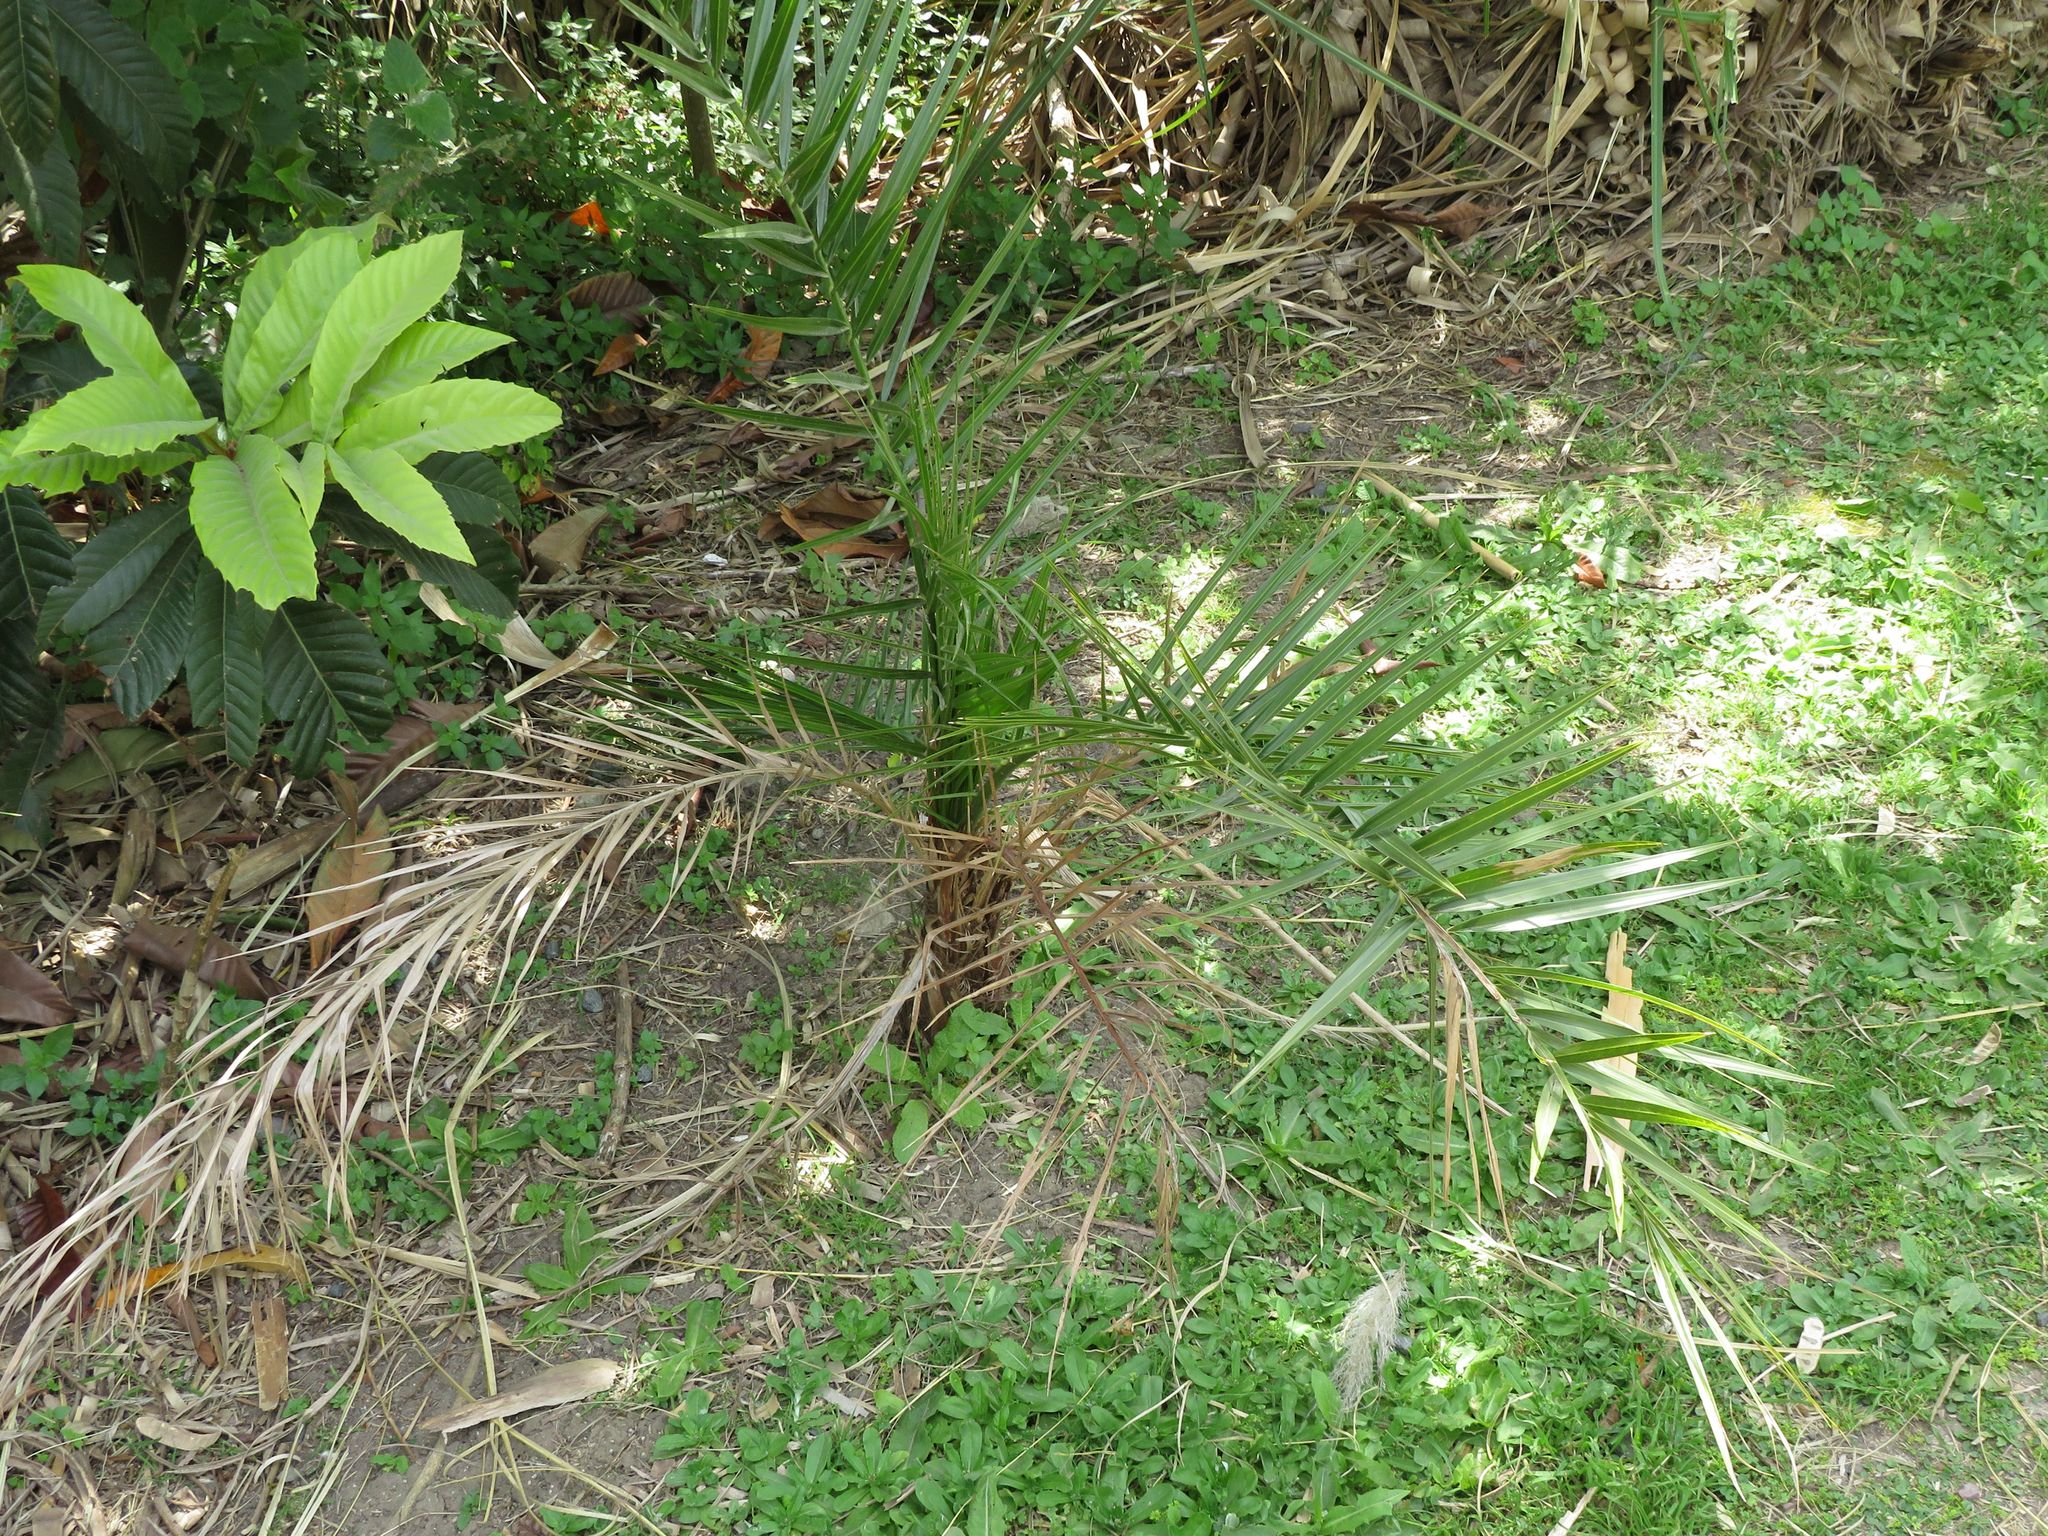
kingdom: Plantae
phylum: Tracheophyta
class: Liliopsida
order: Arecales
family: Arecaceae
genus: Phoenix
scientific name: Phoenix canariensis
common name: Canary island date palm
